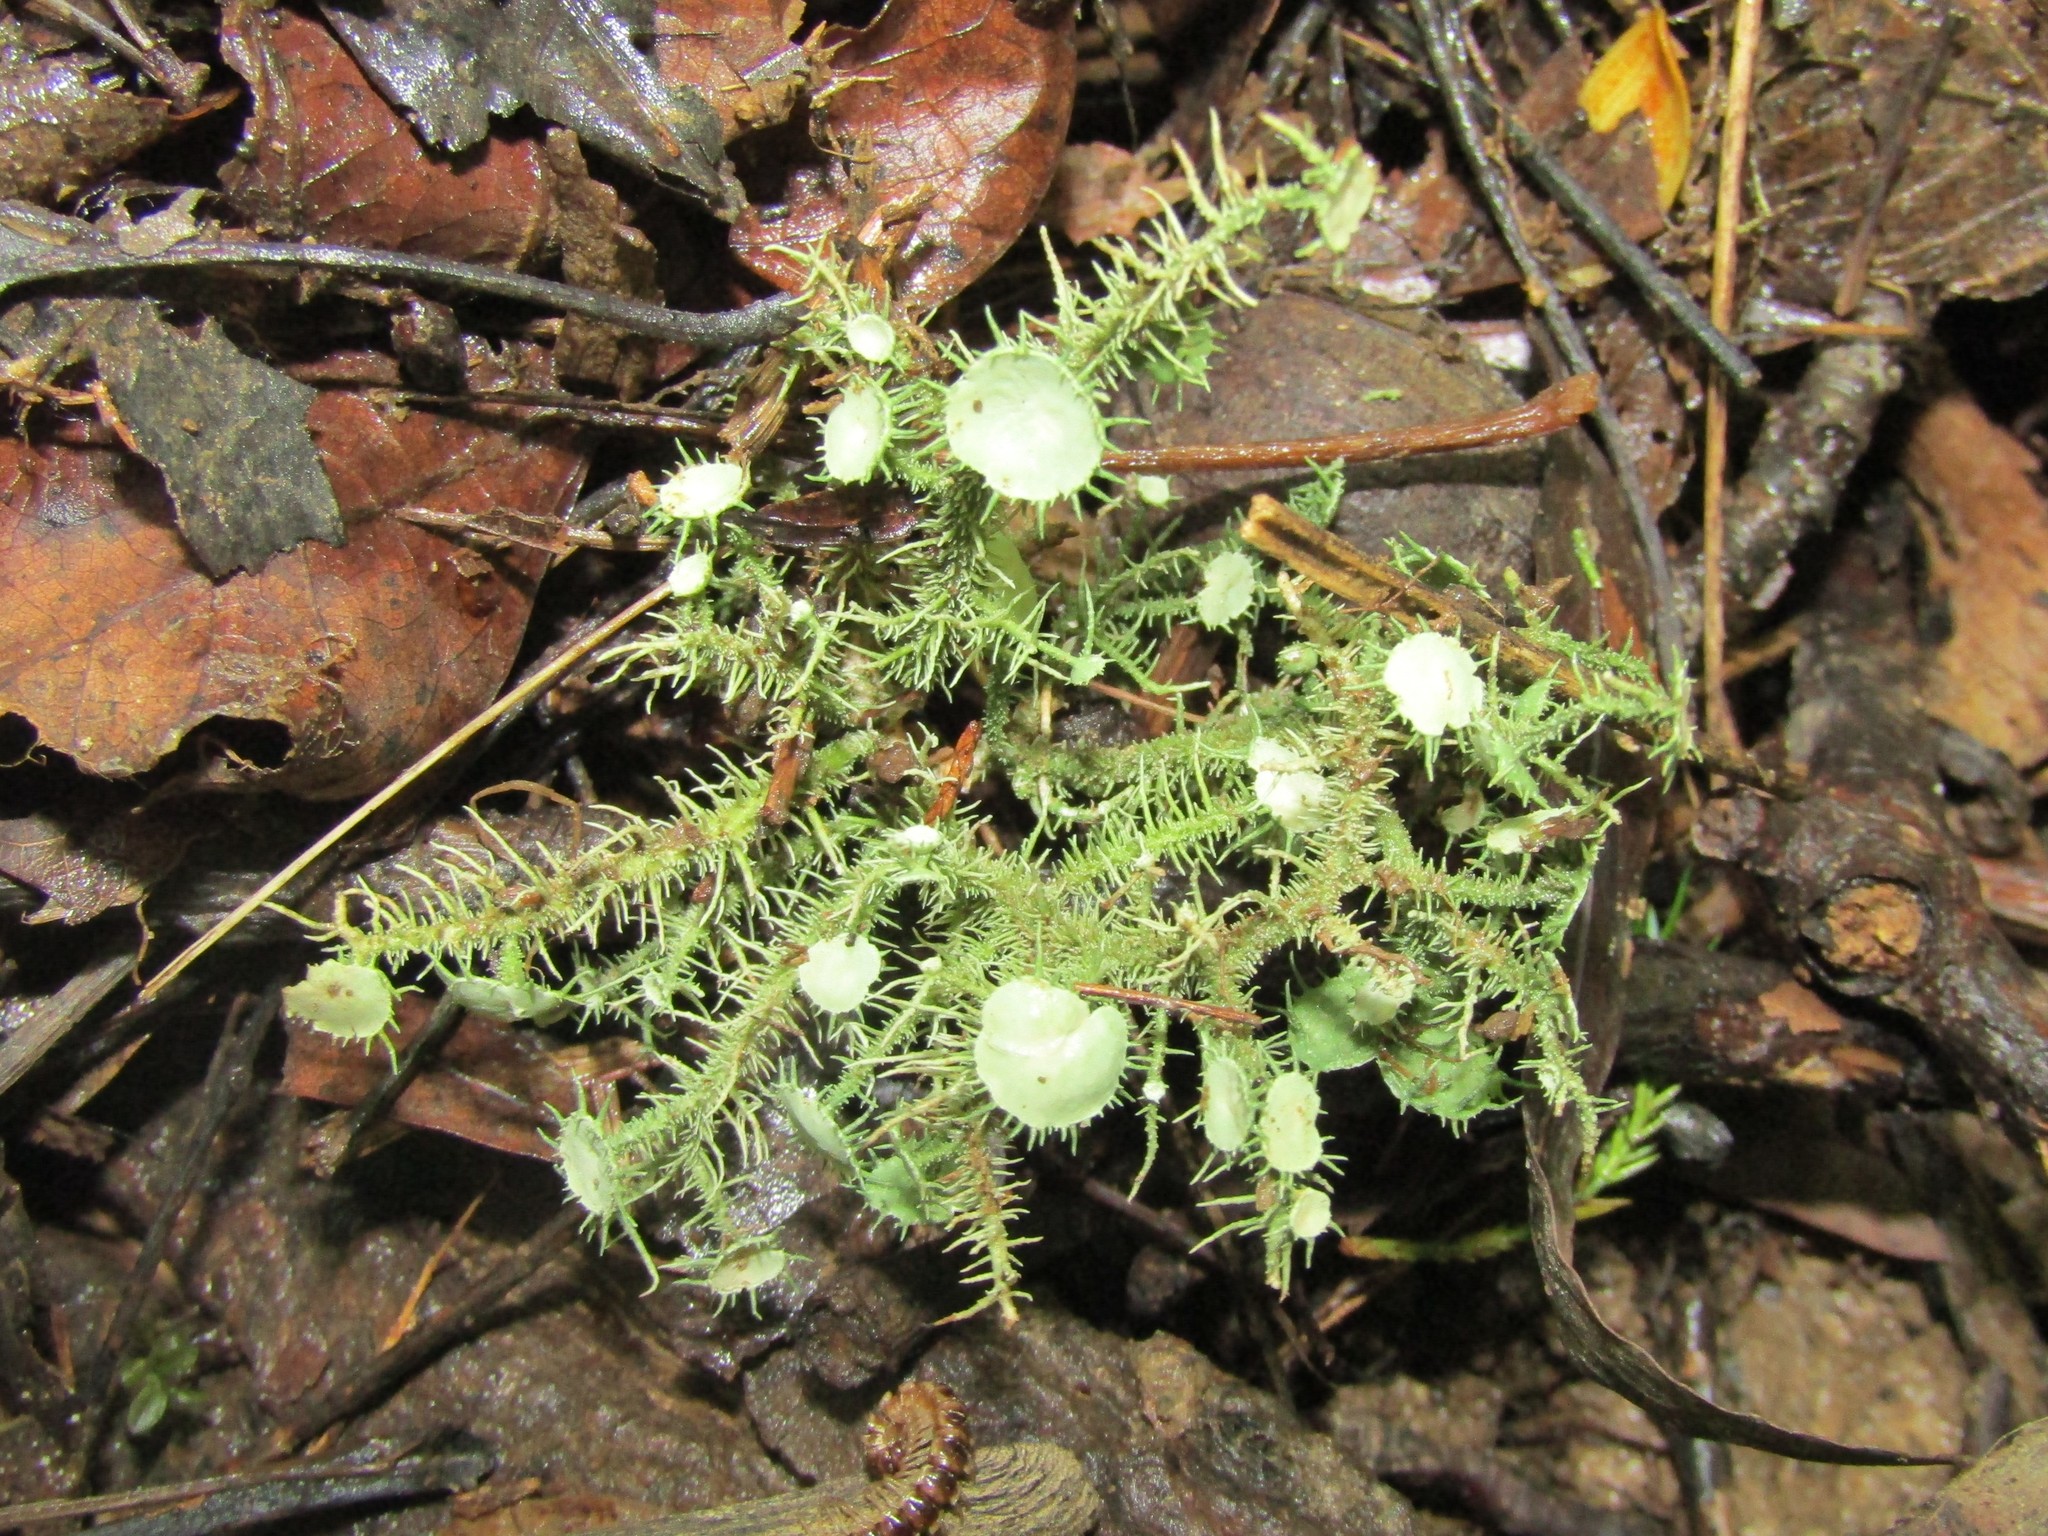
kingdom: Fungi
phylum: Ascomycota
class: Lecanoromycetes
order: Lecanorales
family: Parmeliaceae
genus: Usnea
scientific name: Usnea strigosa
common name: Bushy beard lichen
